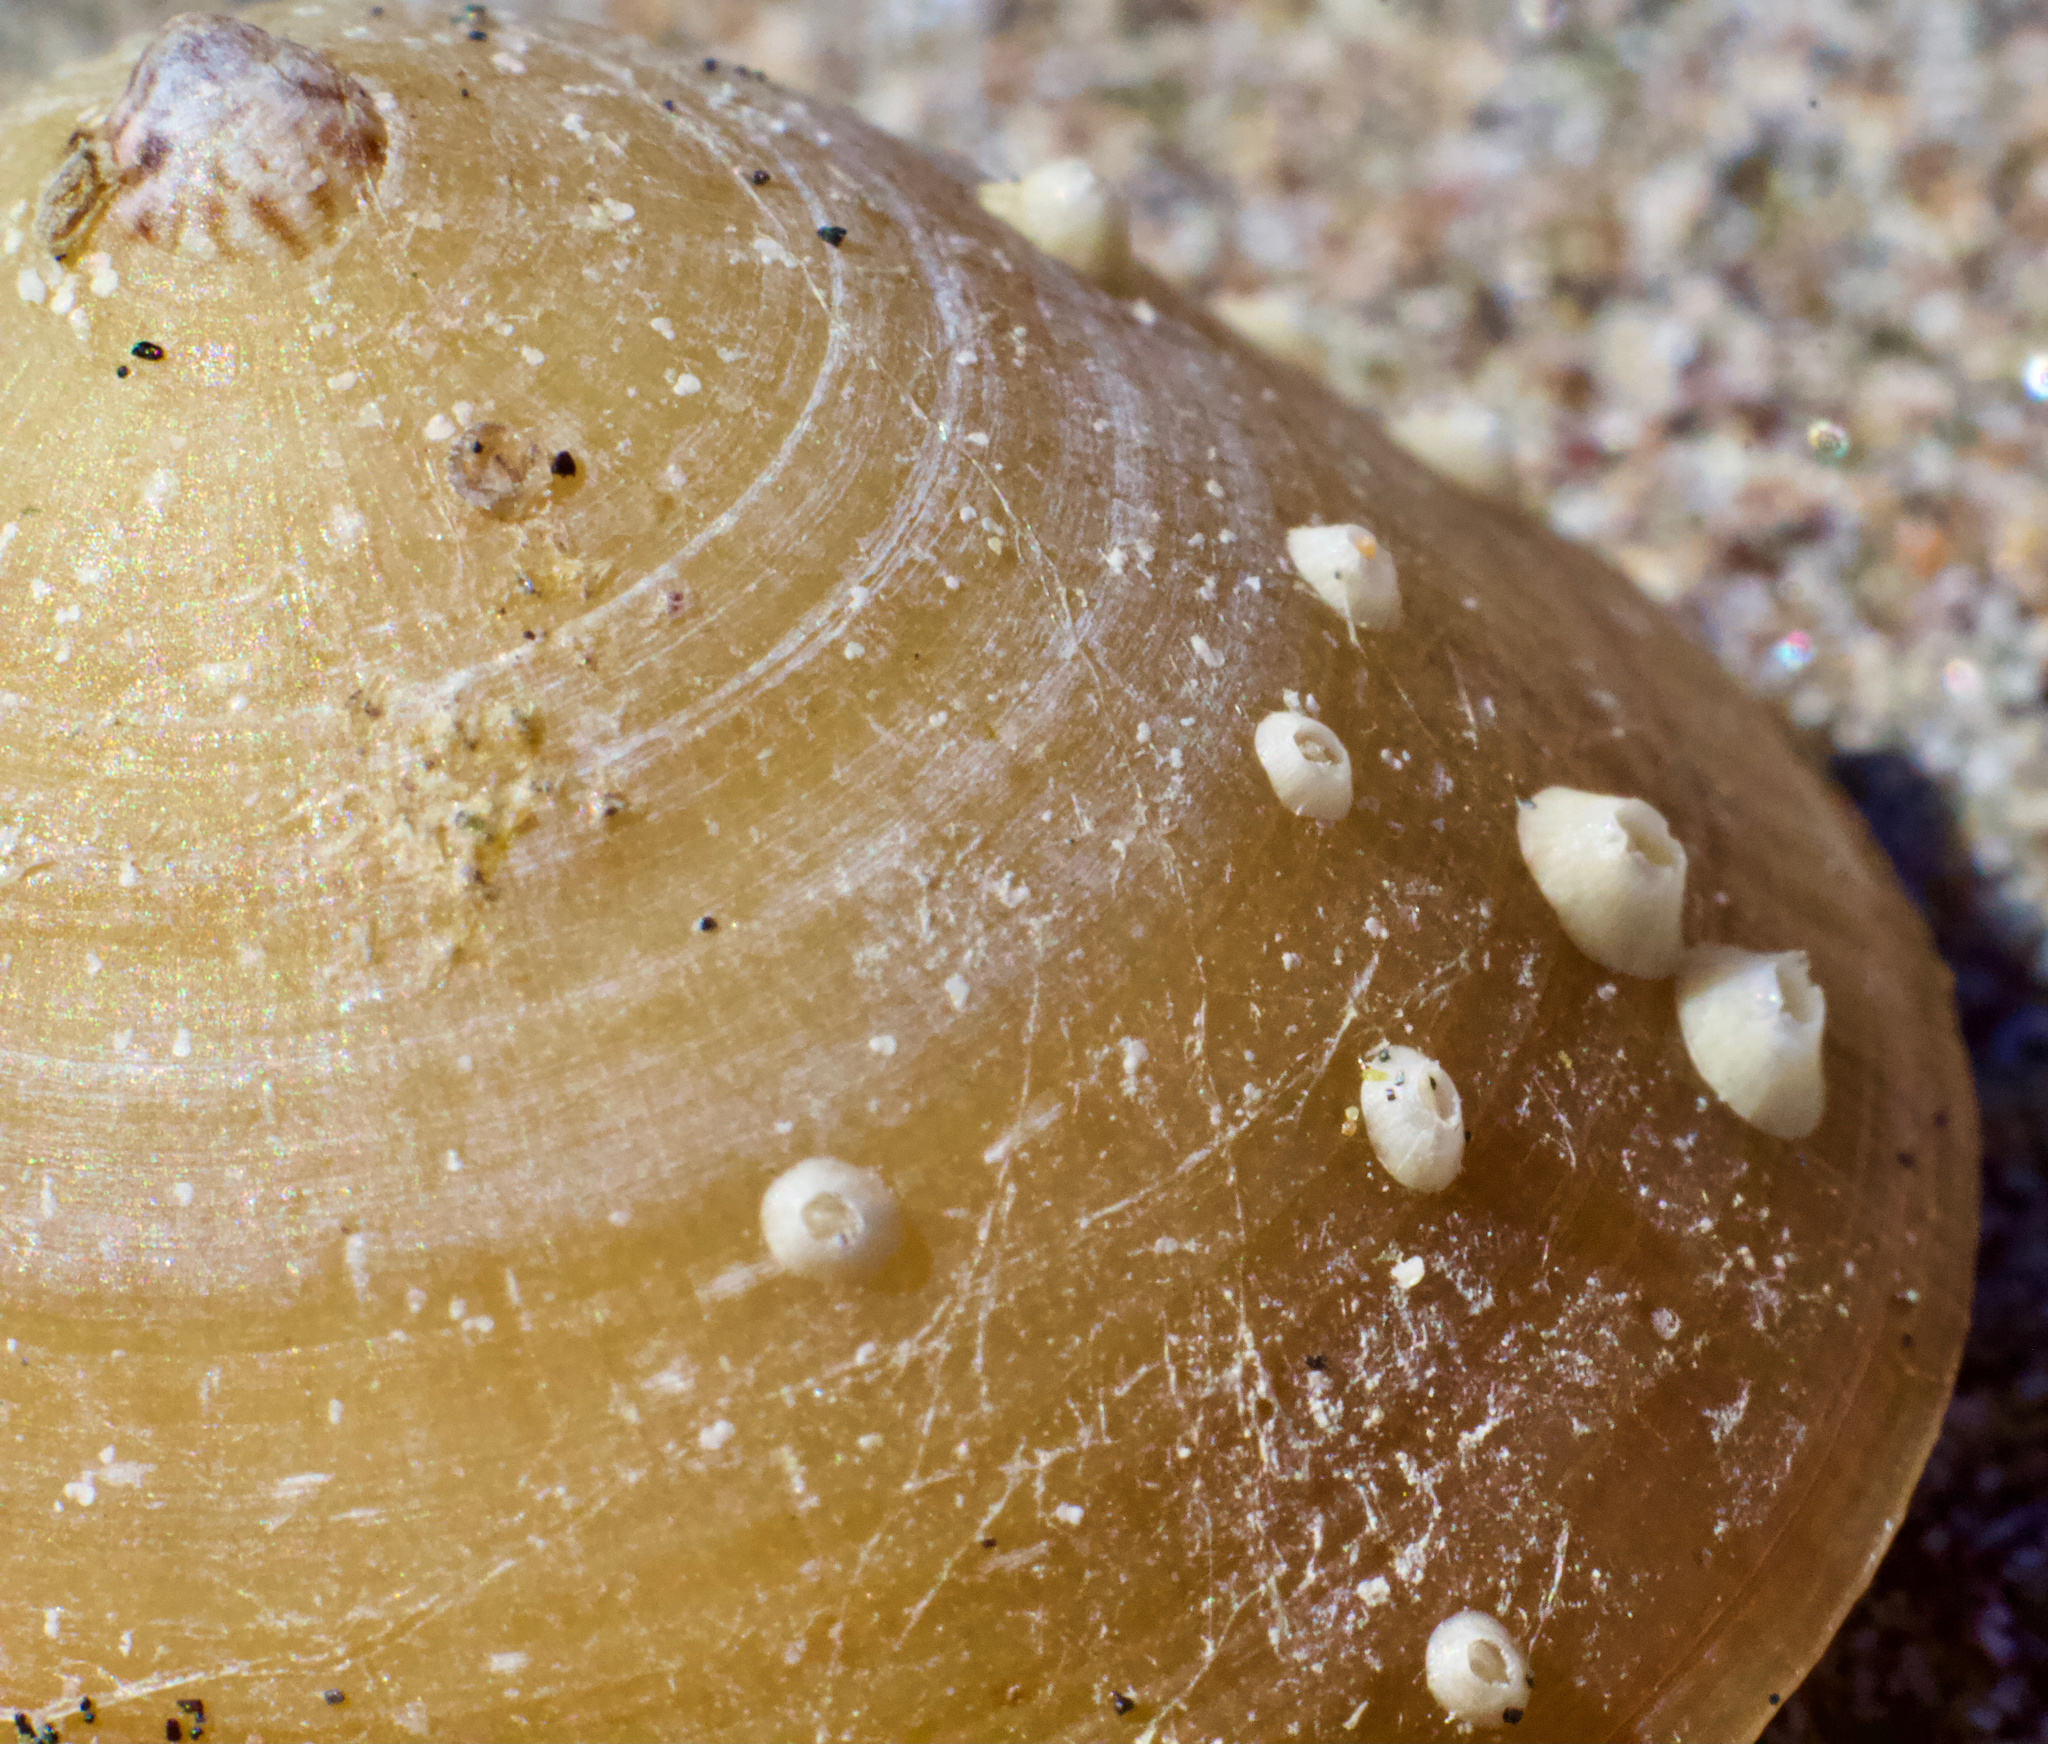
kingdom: Animalia
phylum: Mollusca
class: Gastropoda
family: Lottiidae
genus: Scurria
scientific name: Scurria scurra
